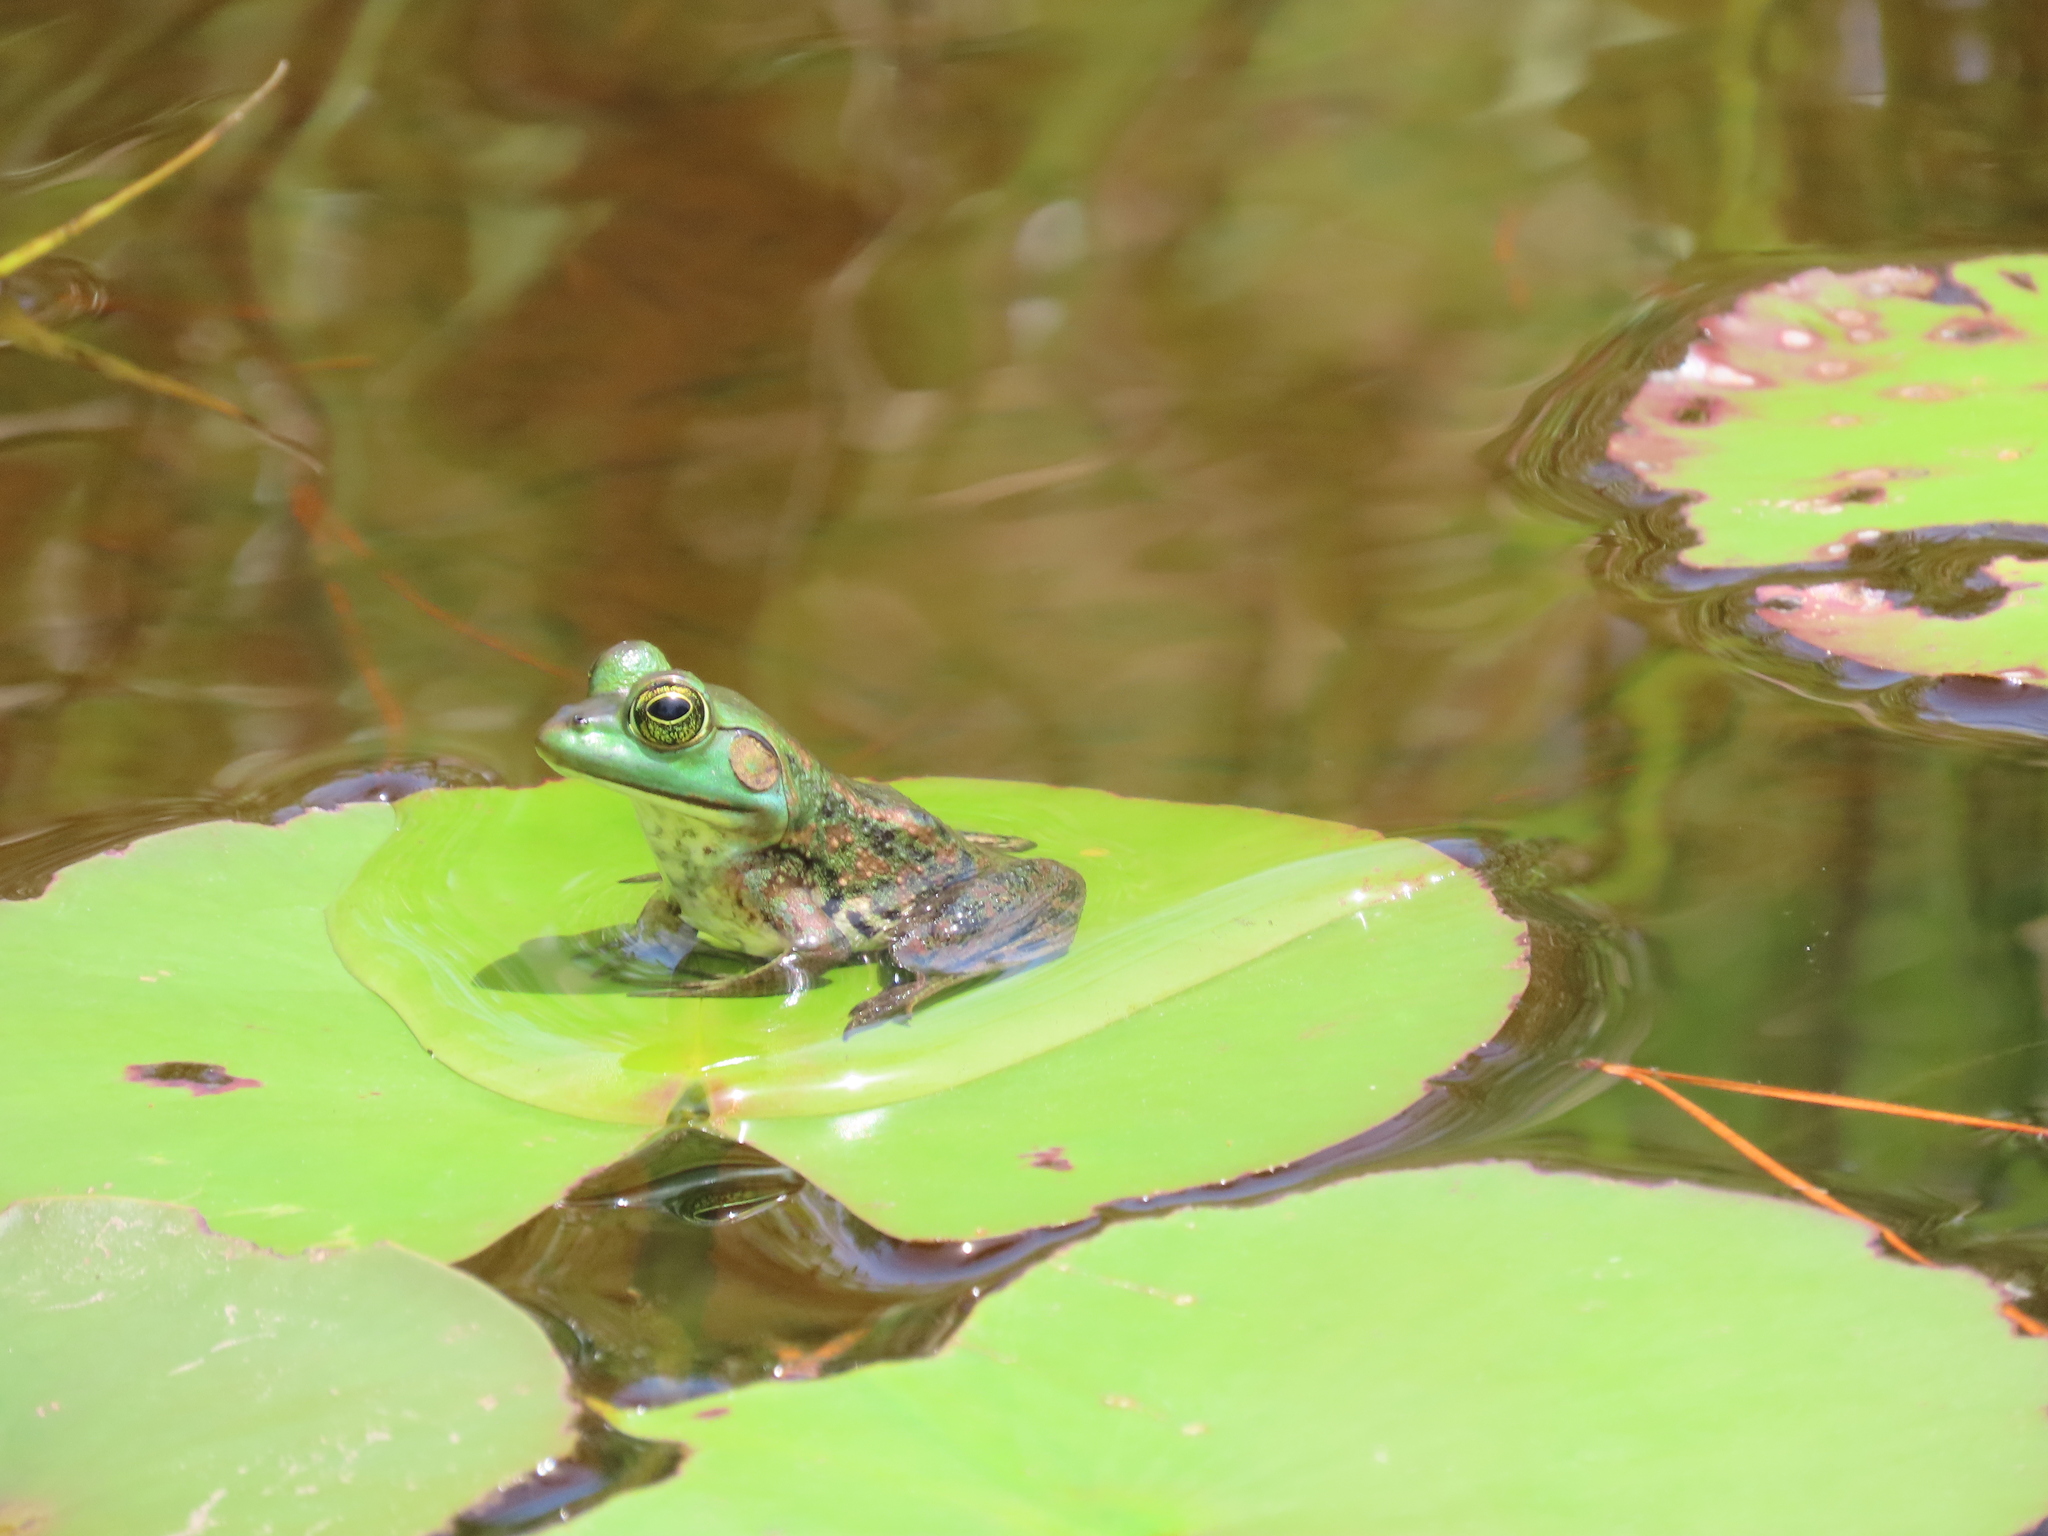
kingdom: Animalia
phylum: Chordata
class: Amphibia
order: Anura
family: Ranidae
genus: Lithobates
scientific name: Lithobates grylio
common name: Pig frog
